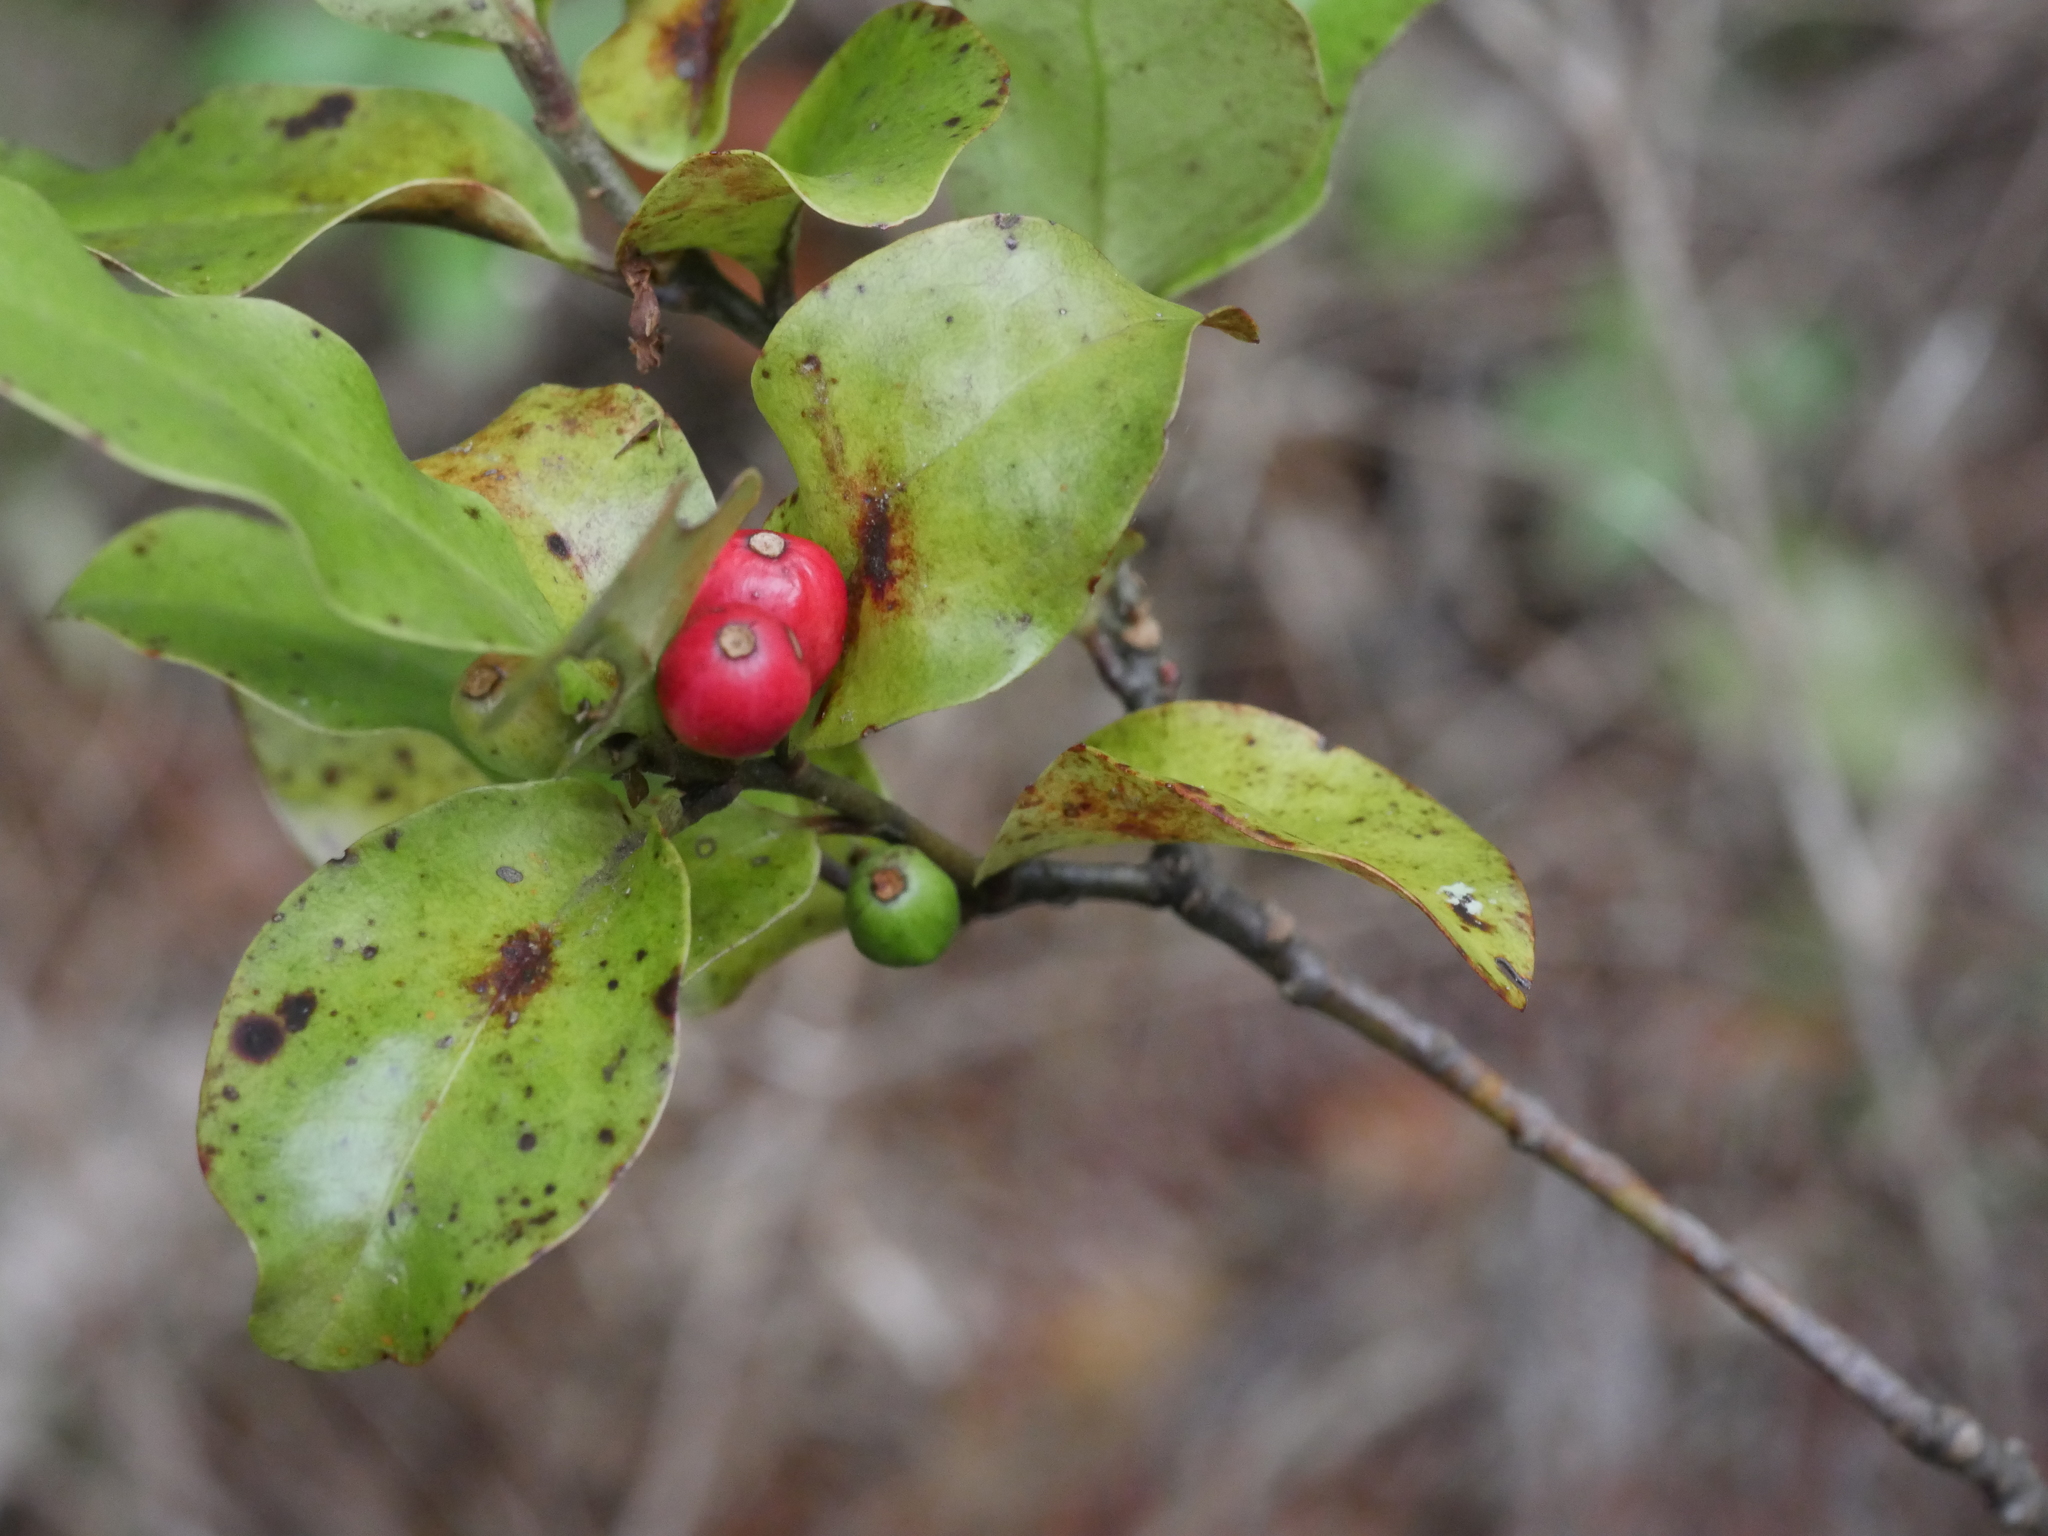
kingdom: Plantae
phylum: Tracheophyta
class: Magnoliopsida
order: Asterales
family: Alseuosmiaceae
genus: Alseuosmia
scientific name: Alseuosmia quercifolia
